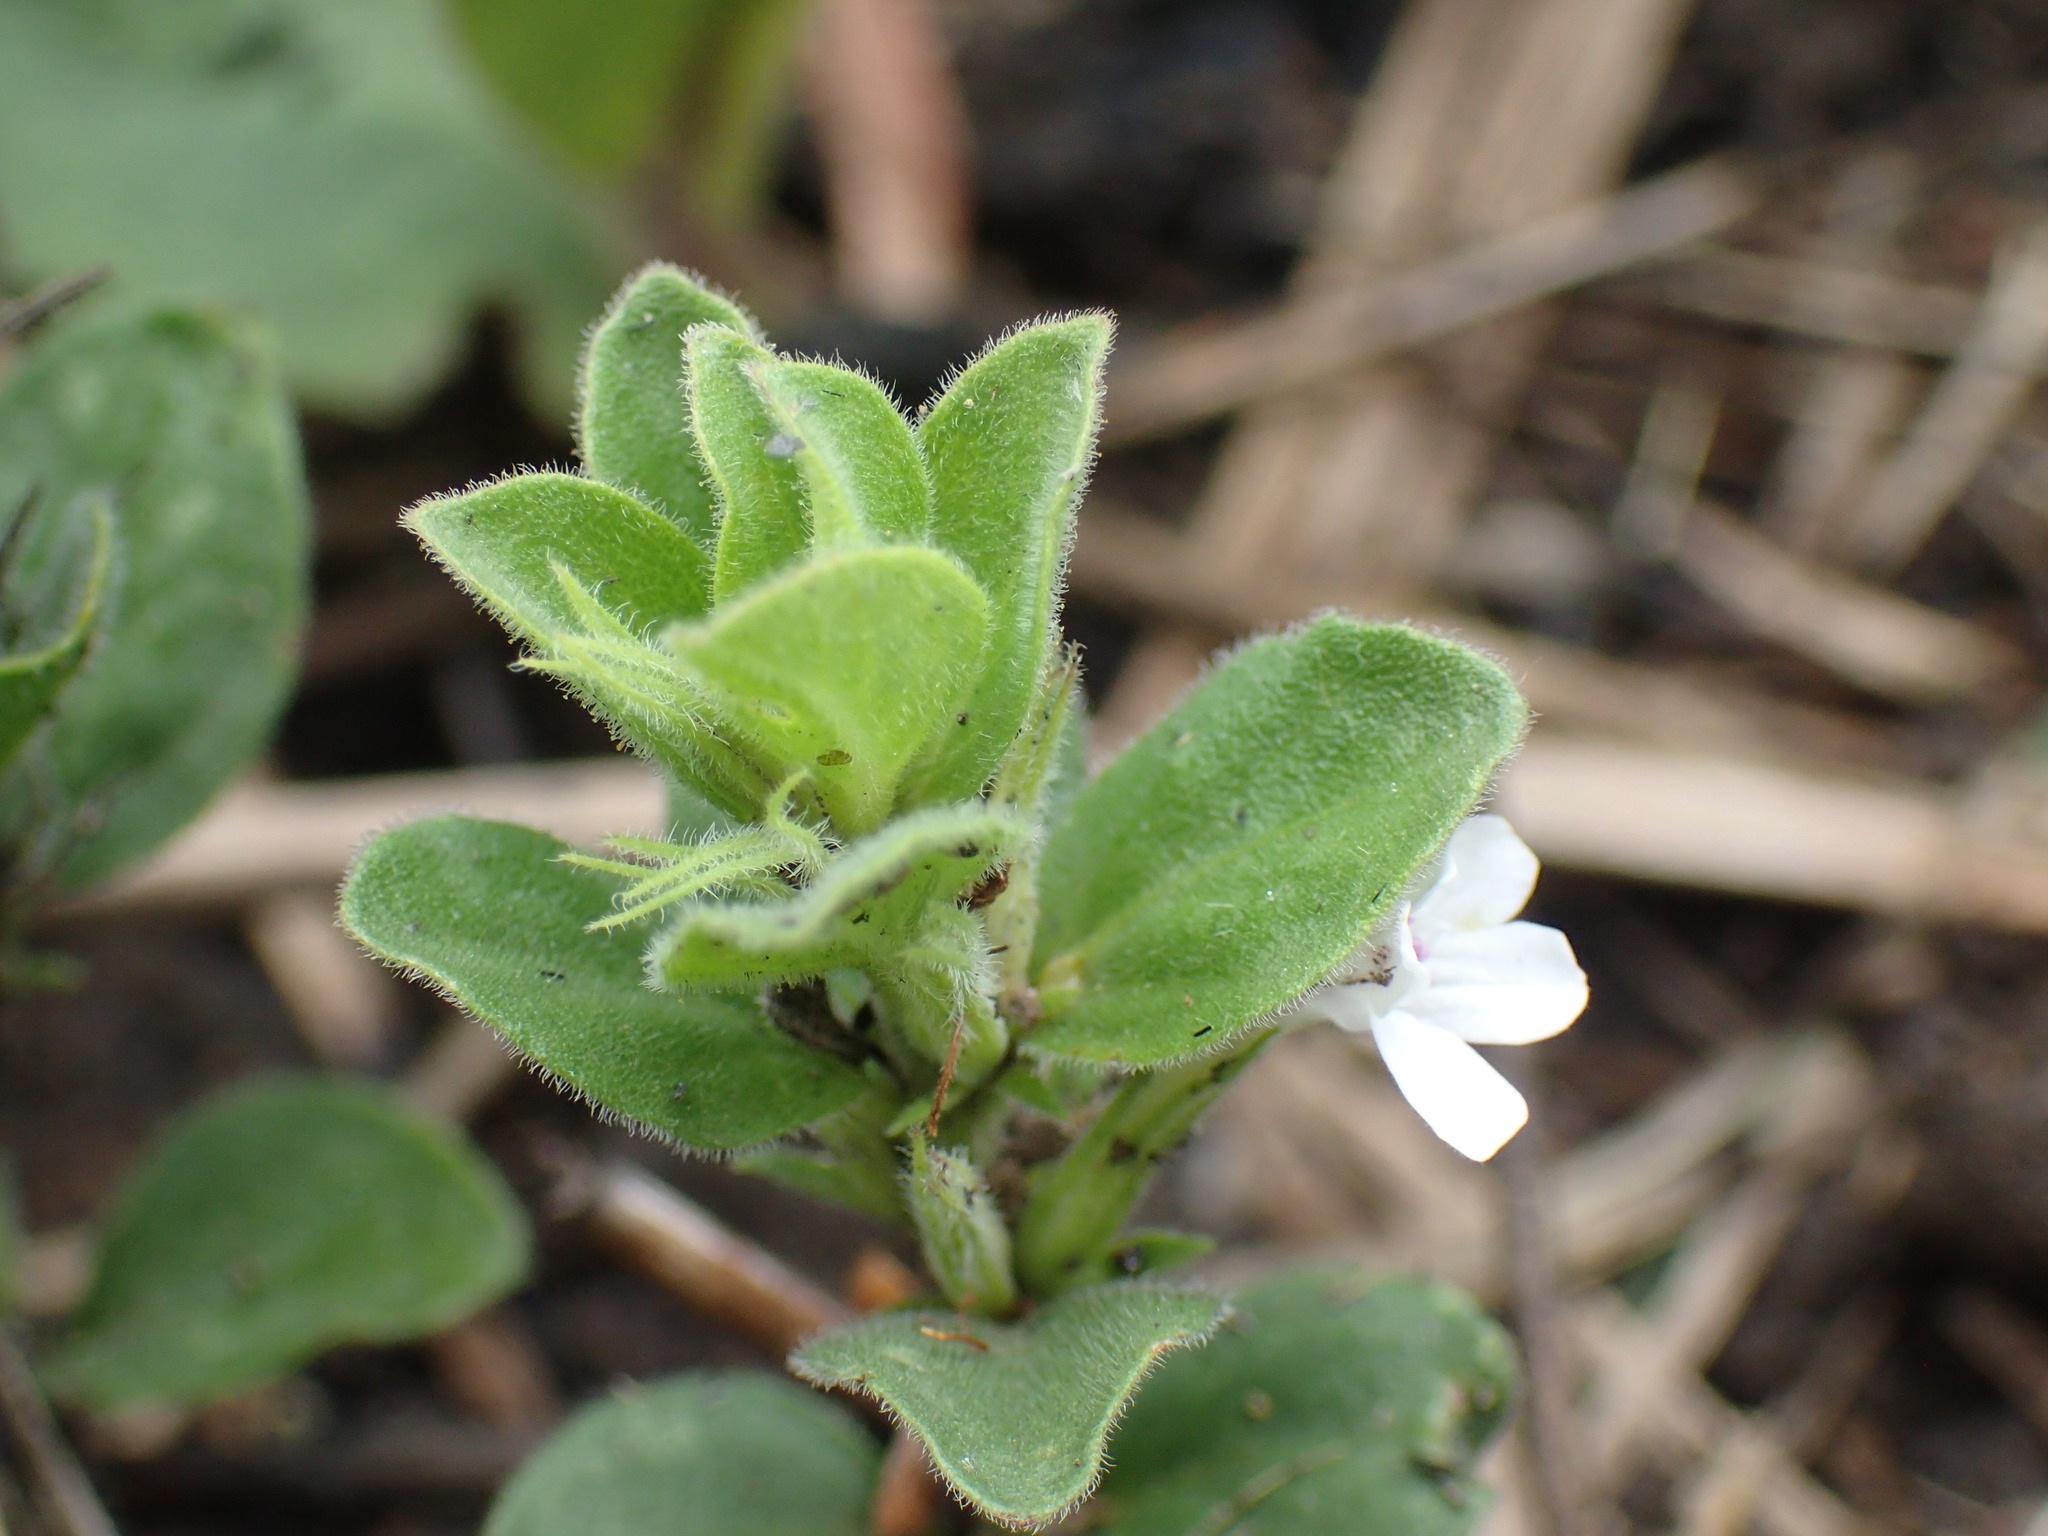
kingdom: Plantae
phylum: Tracheophyta
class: Magnoliopsida
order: Lamiales
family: Acanthaceae
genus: Dyschoriste
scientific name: Dyschoriste setigera
